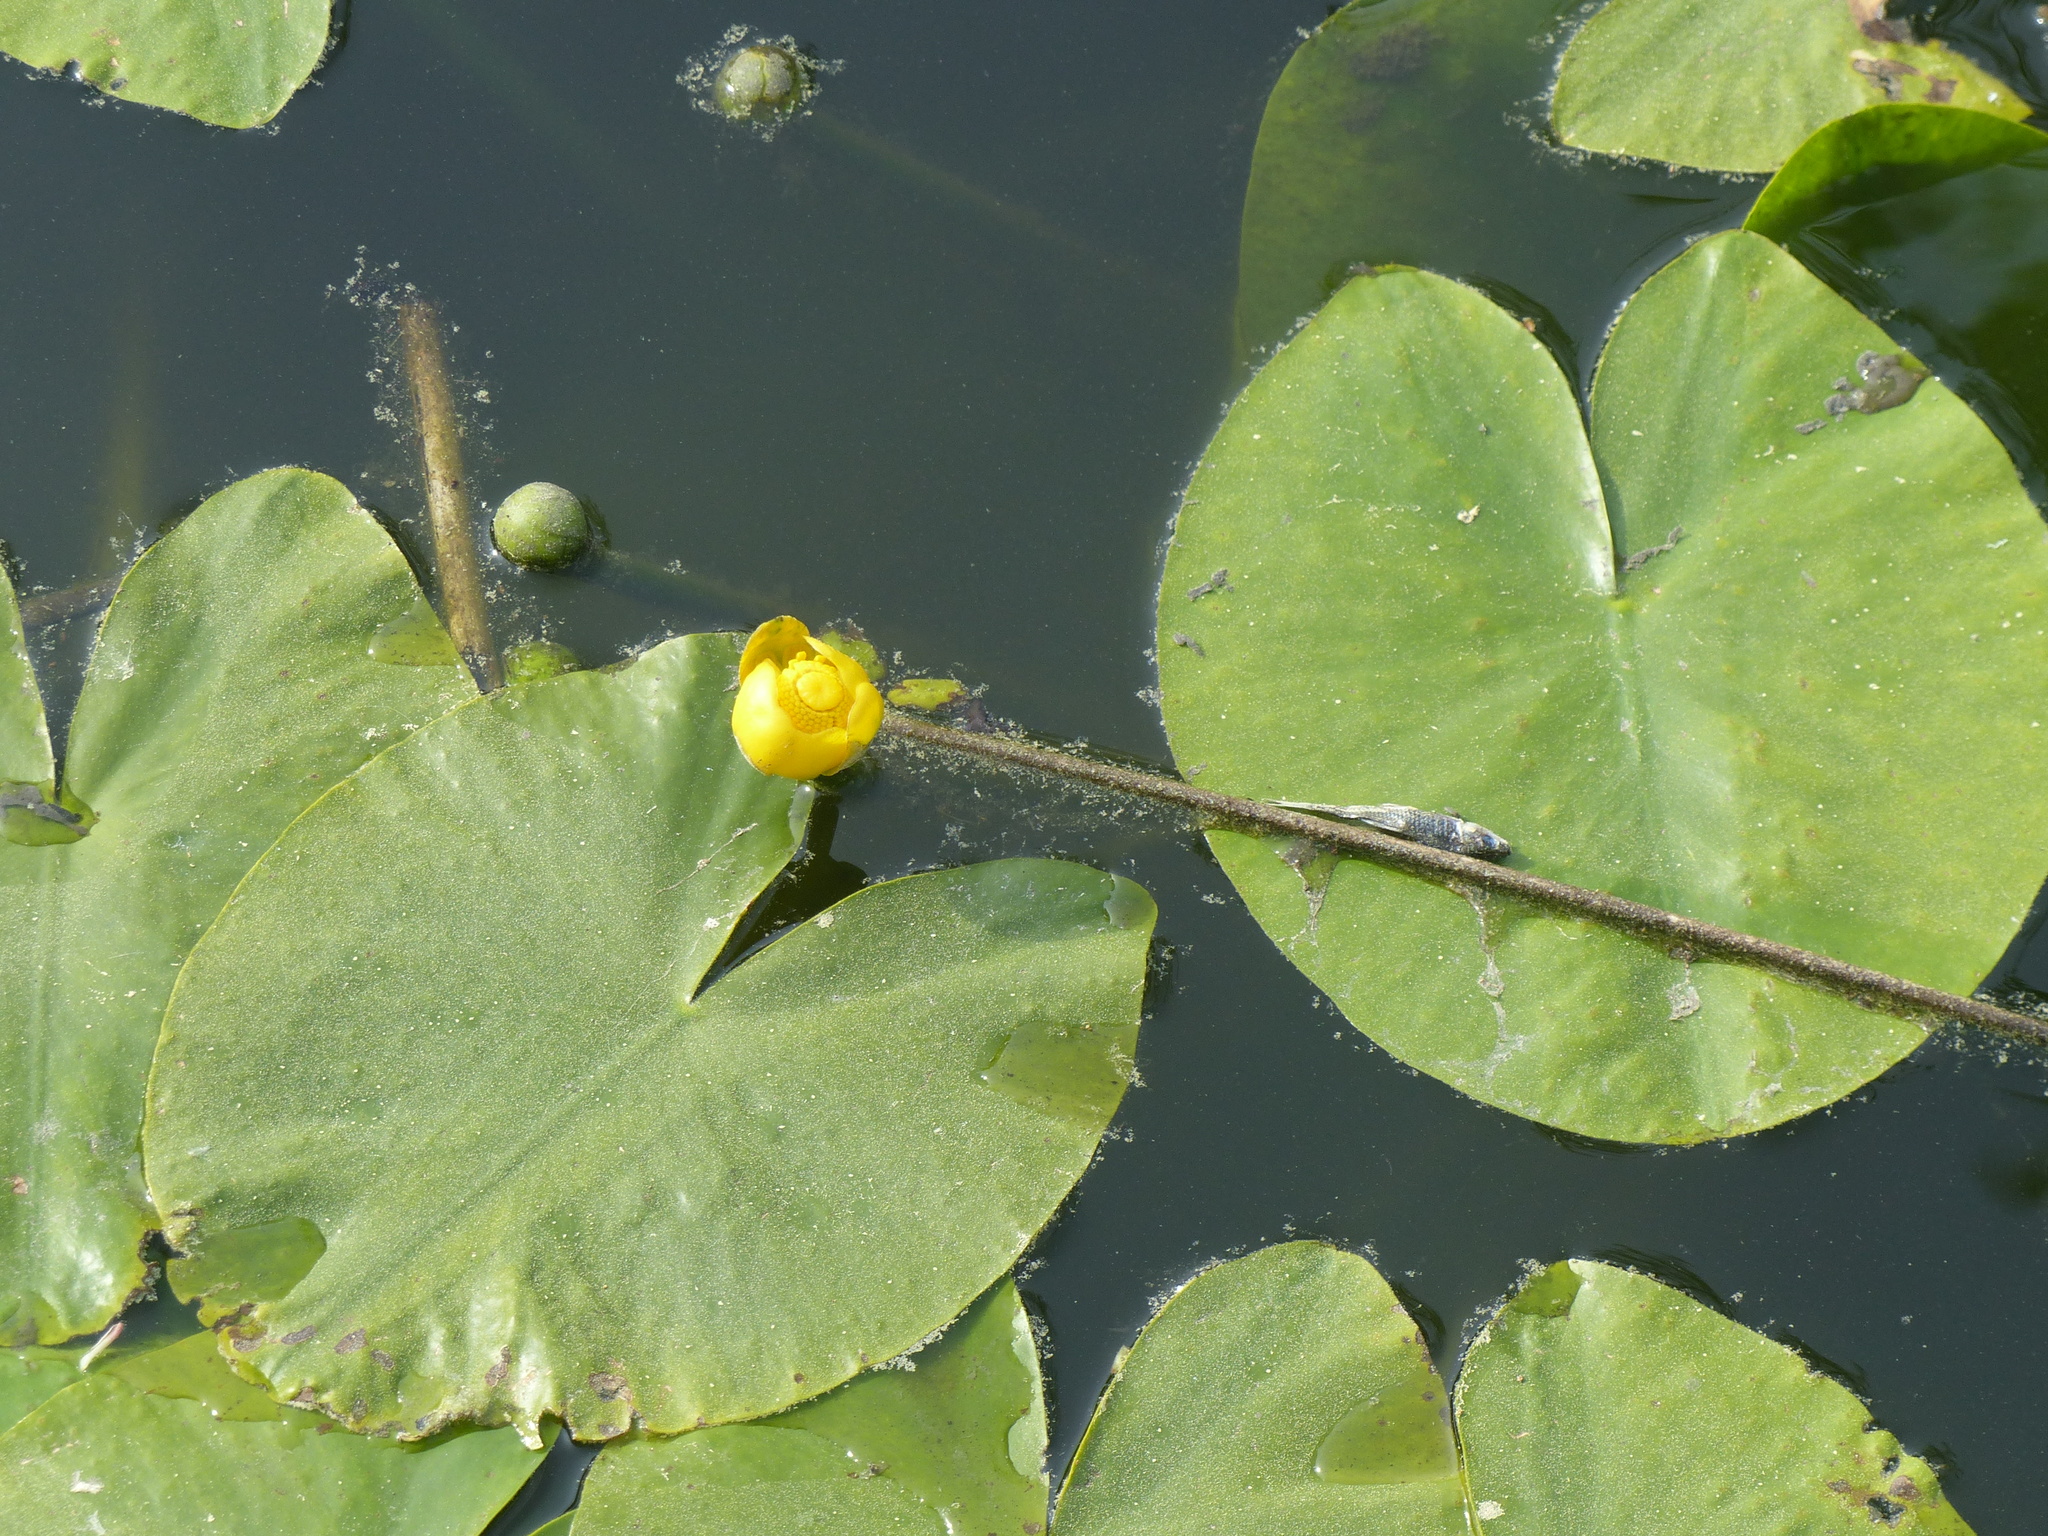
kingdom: Plantae
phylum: Tracheophyta
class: Magnoliopsida
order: Nymphaeales
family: Nymphaeaceae
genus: Nuphar
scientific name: Nuphar lutea
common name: Yellow water-lily
